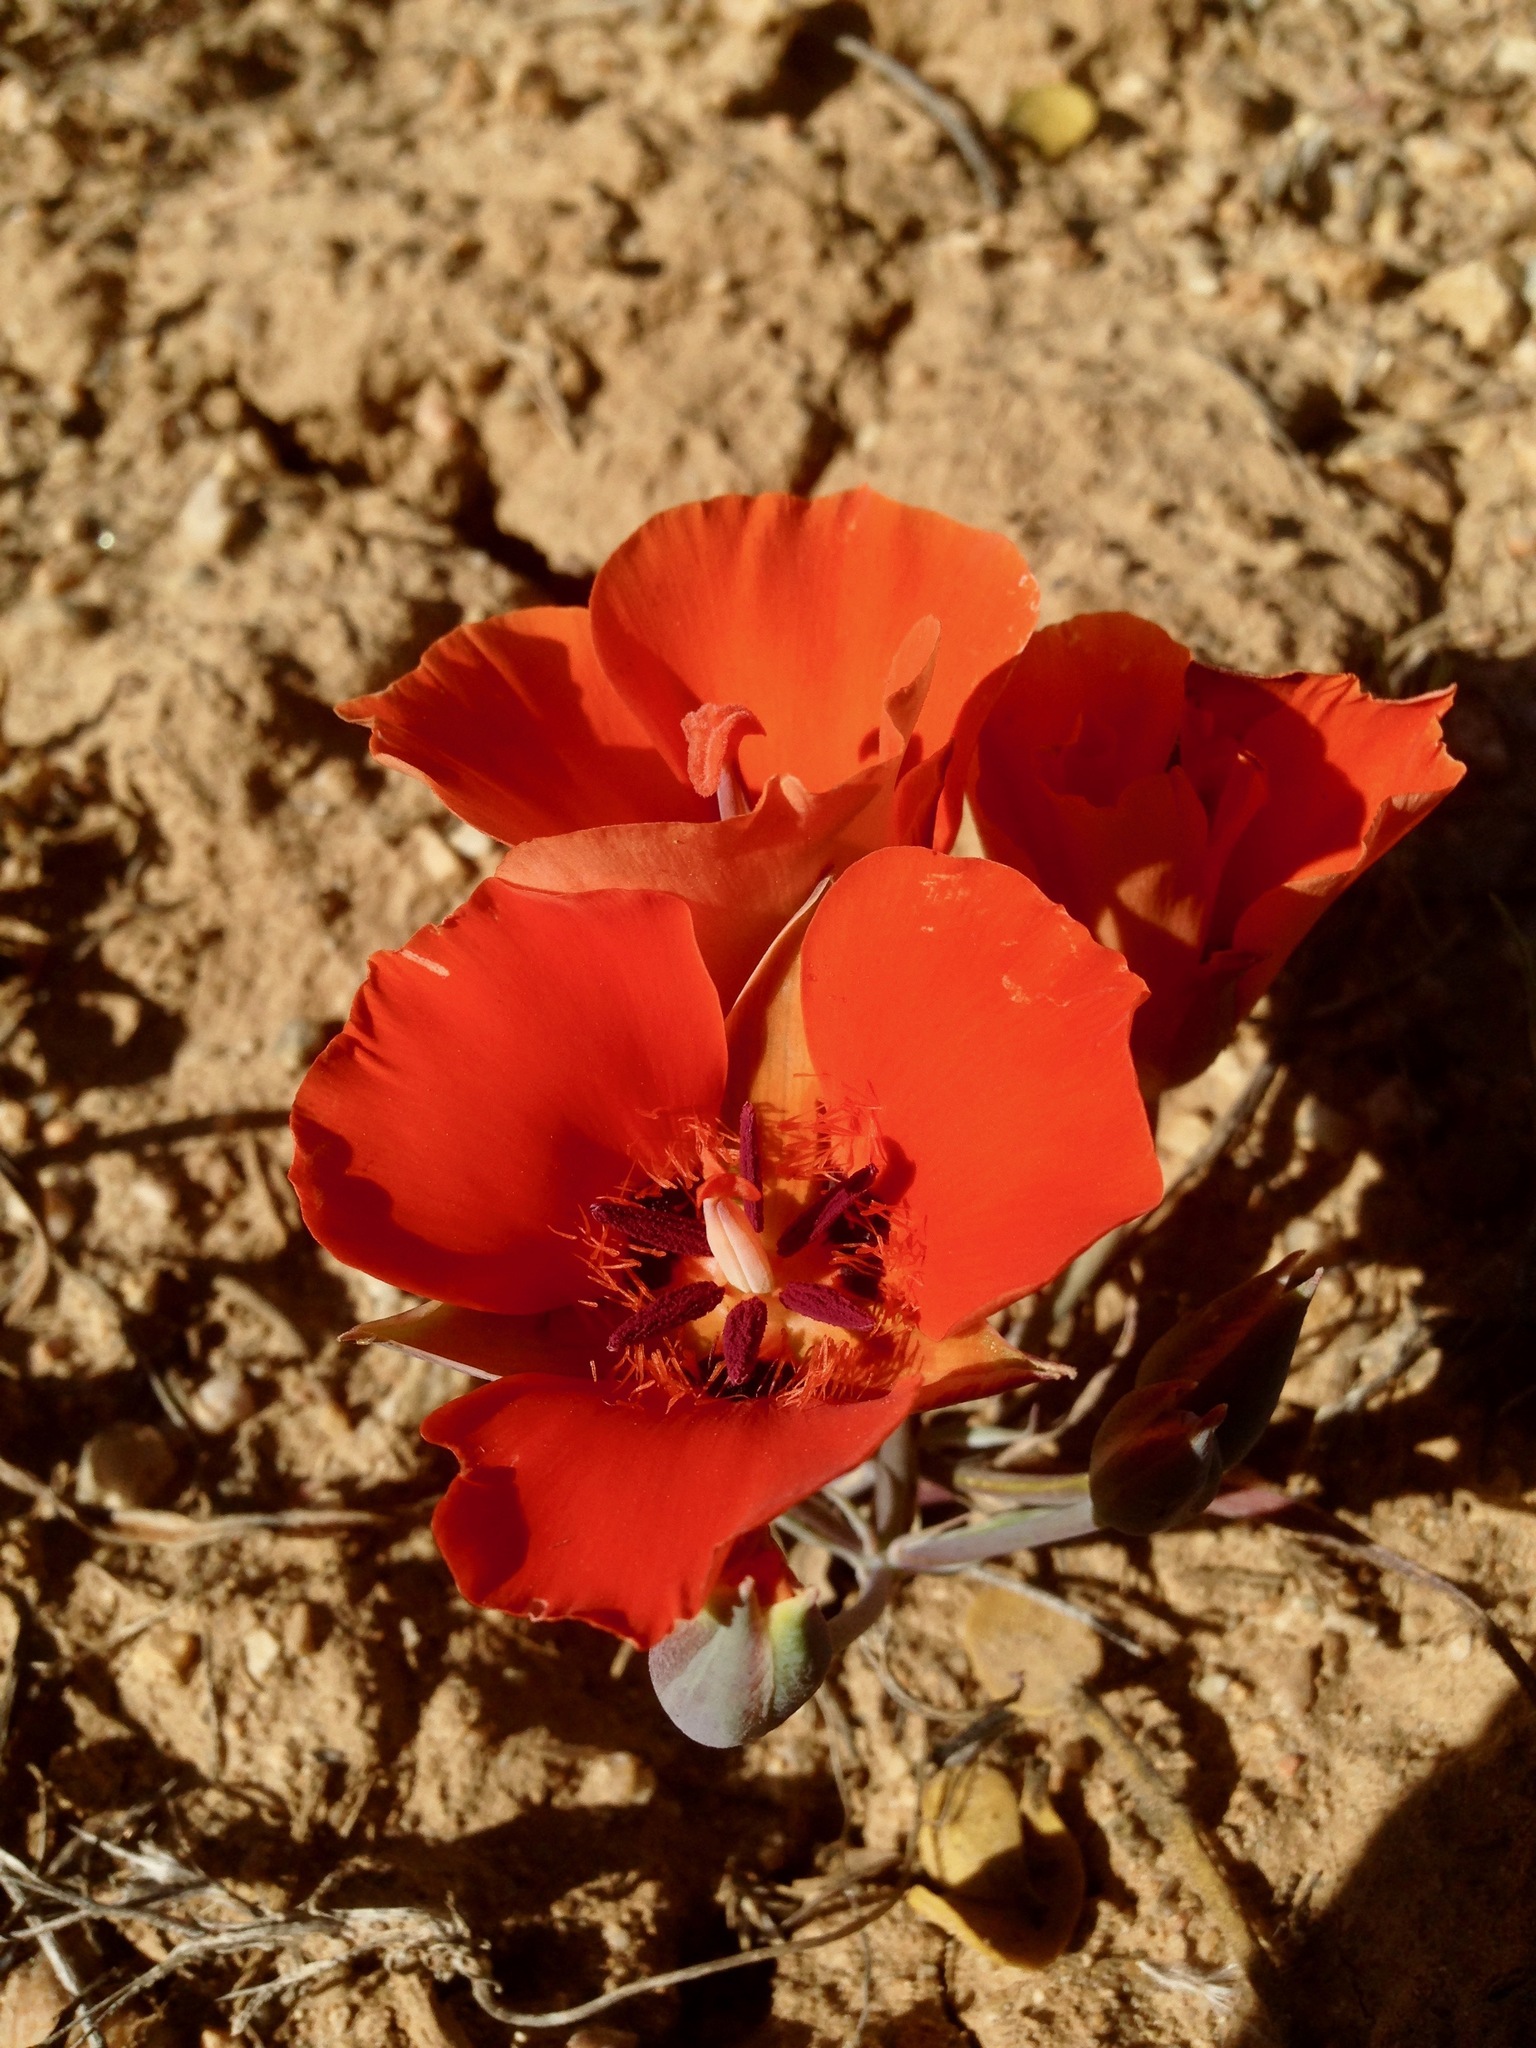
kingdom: Plantae
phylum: Tracheophyta
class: Liliopsida
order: Liliales
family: Liliaceae
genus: Calochortus
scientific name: Calochortus kennedyi
